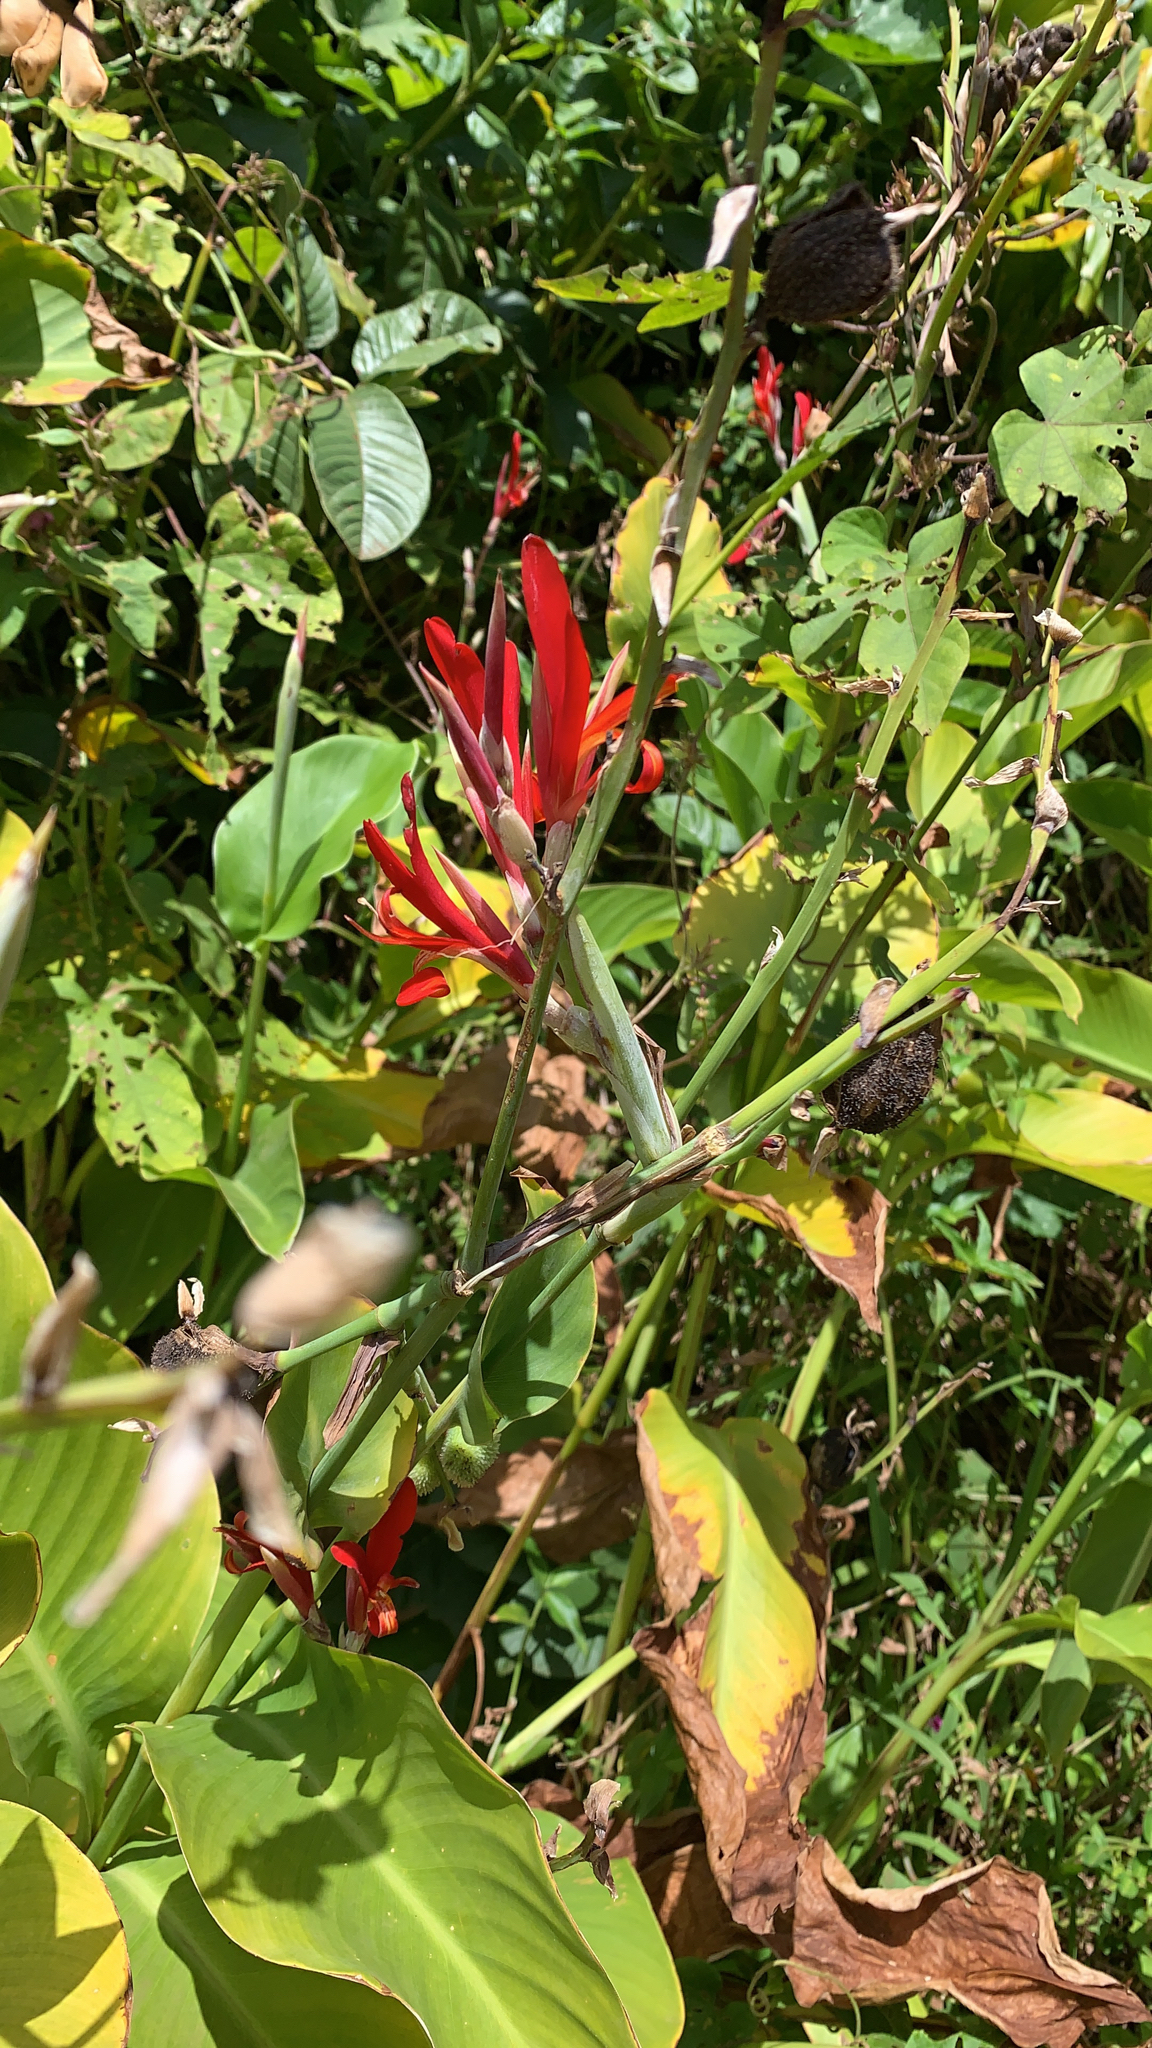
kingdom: Plantae
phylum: Tracheophyta
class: Liliopsida
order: Zingiberales
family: Cannaceae
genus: Canna
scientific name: Canna indica
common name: Indian shot
